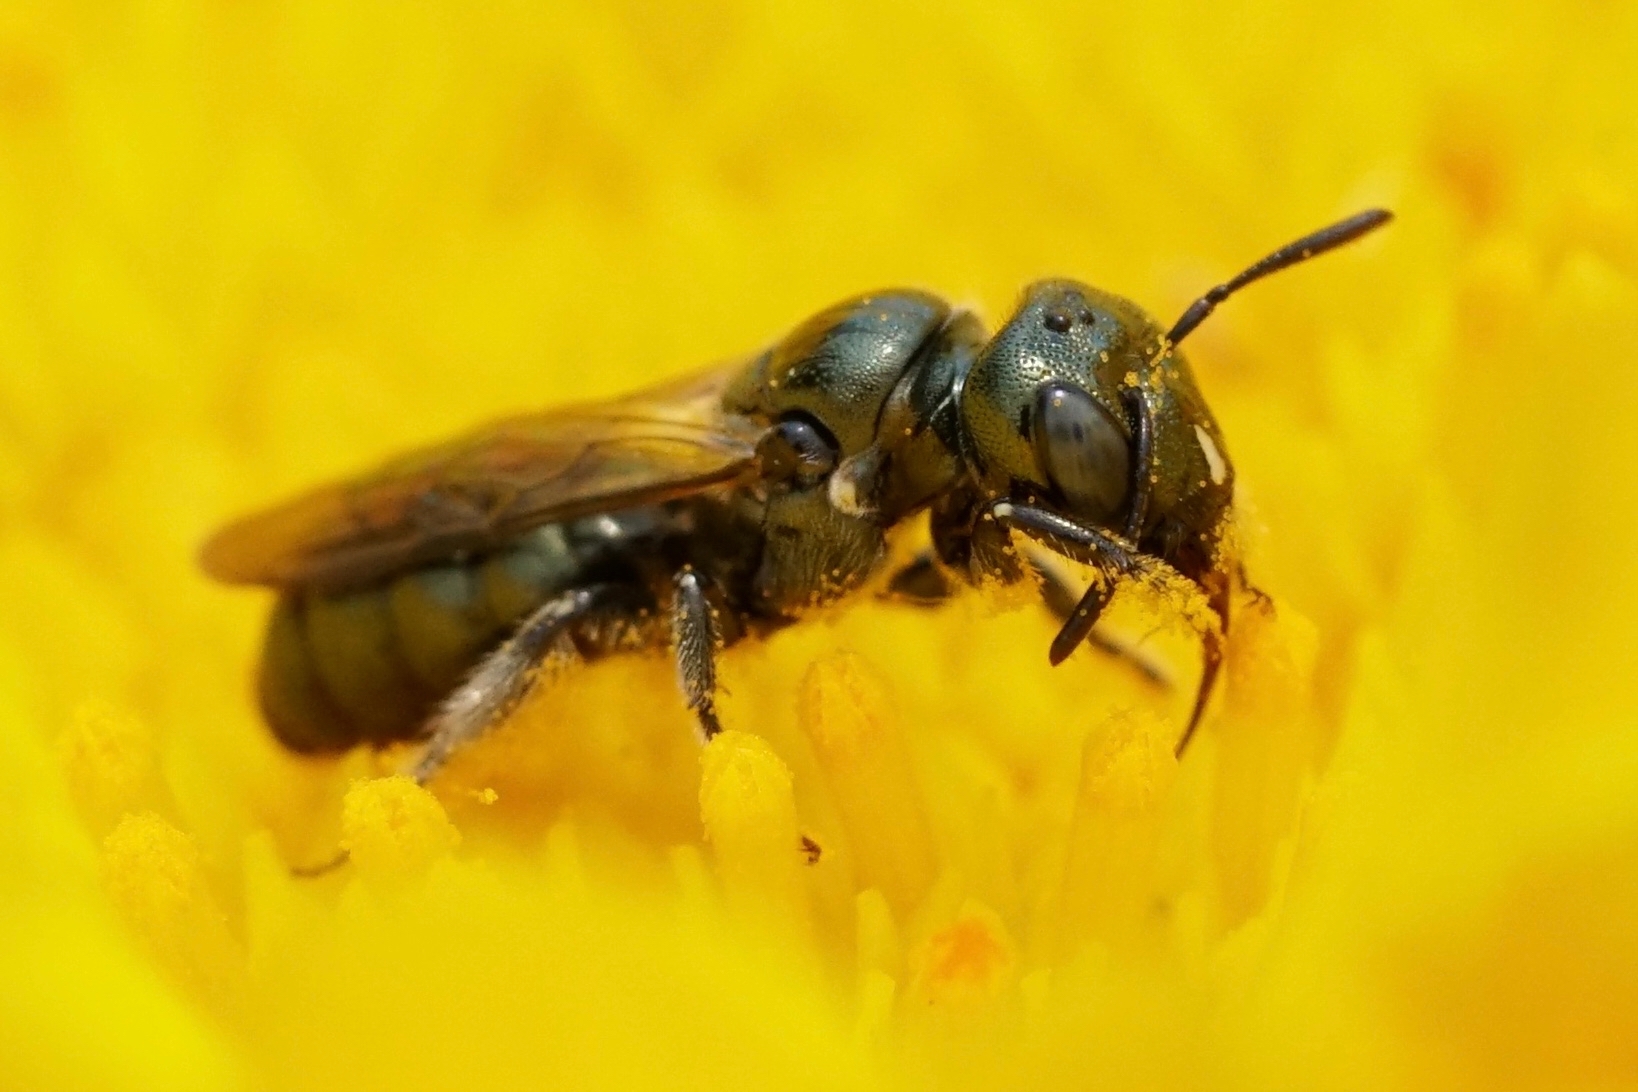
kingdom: Animalia
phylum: Arthropoda
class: Insecta
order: Hymenoptera
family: Apidae
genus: Zadontomerus
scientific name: Zadontomerus
